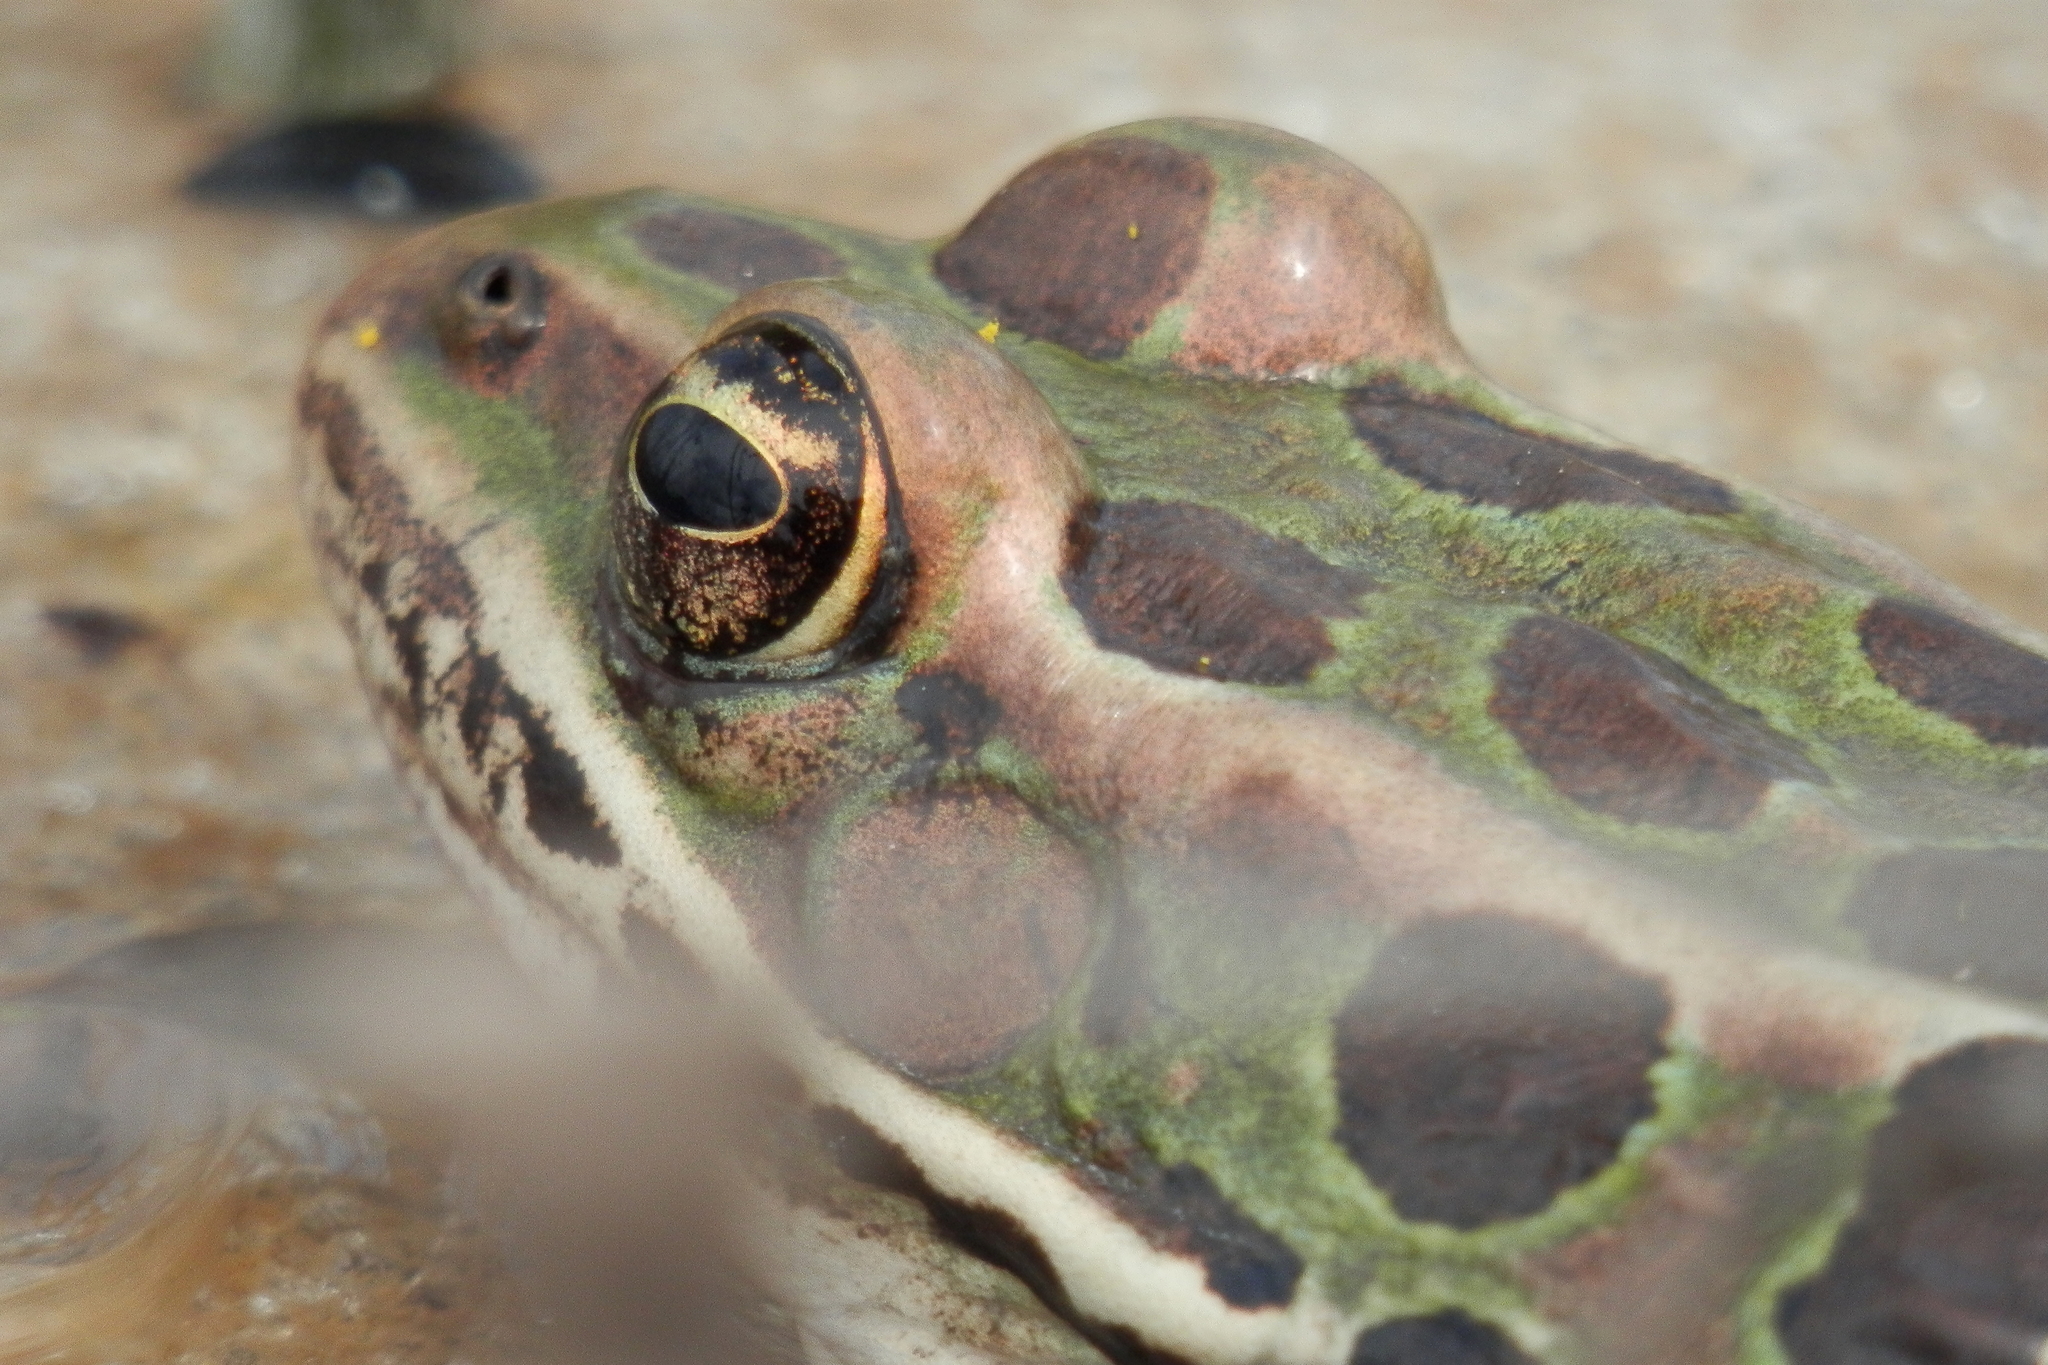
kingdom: Animalia
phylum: Chordata
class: Amphibia
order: Anura
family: Ranidae
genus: Lithobates
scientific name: Lithobates pipiens
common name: Northern leopard frog
